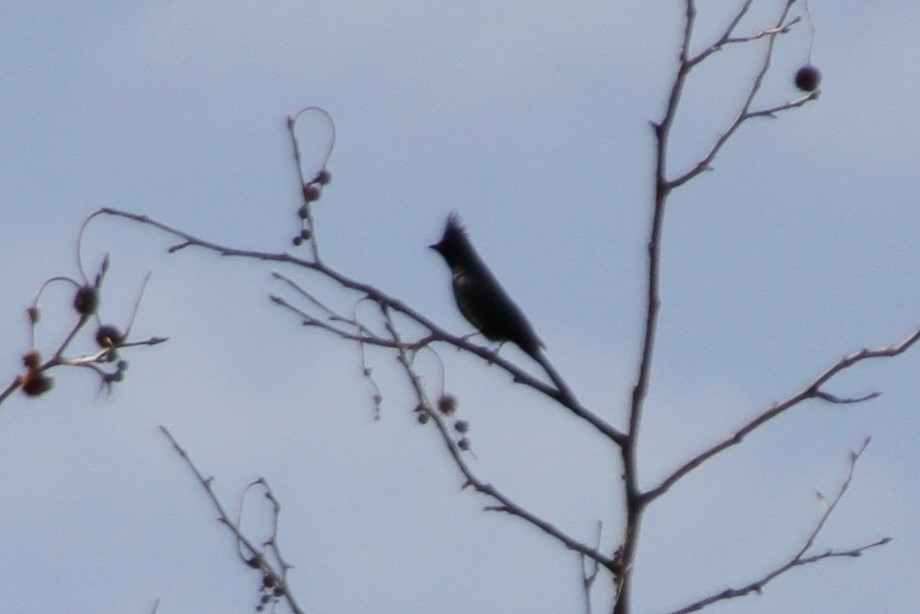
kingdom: Animalia
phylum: Chordata
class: Aves
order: Passeriformes
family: Ptilogonatidae
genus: Phainopepla
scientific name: Phainopepla nitens
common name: Phainopepla
